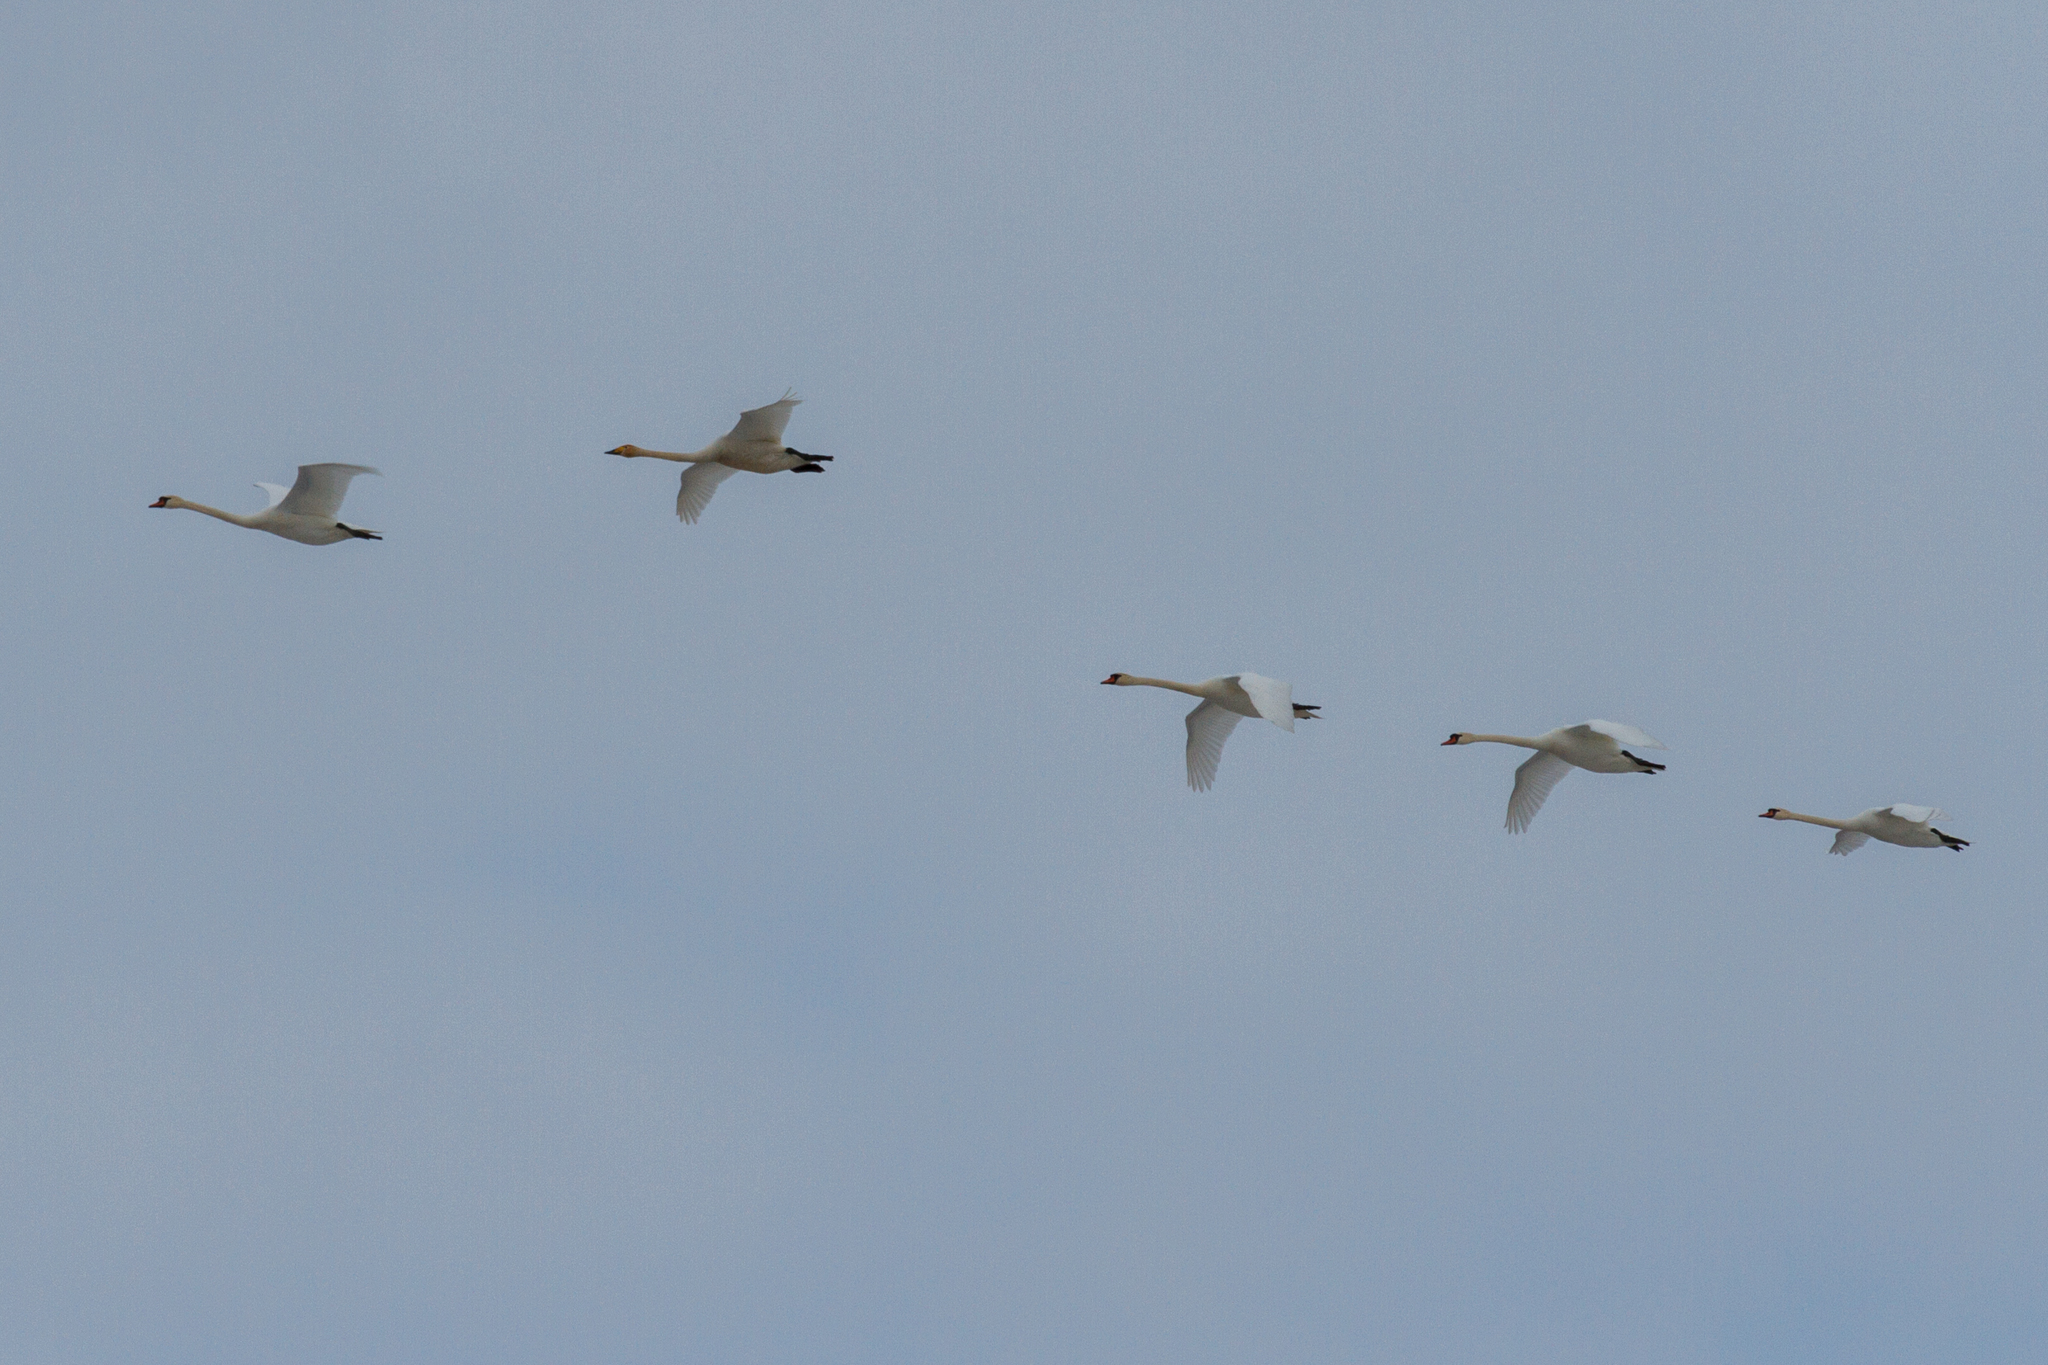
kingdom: Animalia
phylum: Chordata
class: Aves
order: Anseriformes
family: Anatidae
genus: Cygnus
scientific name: Cygnus olor
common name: Mute swan
